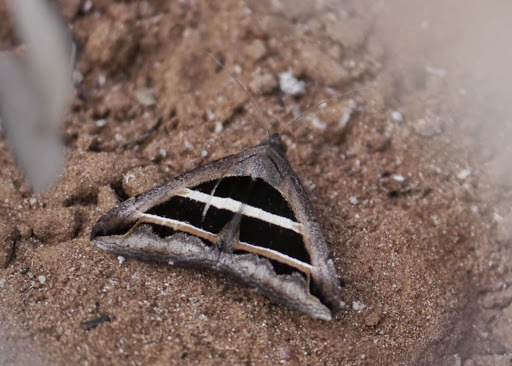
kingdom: Animalia
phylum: Arthropoda
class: Insecta
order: Lepidoptera
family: Erebidae
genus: Grammodes
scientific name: Grammodes bifasciata
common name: Parallel lines
